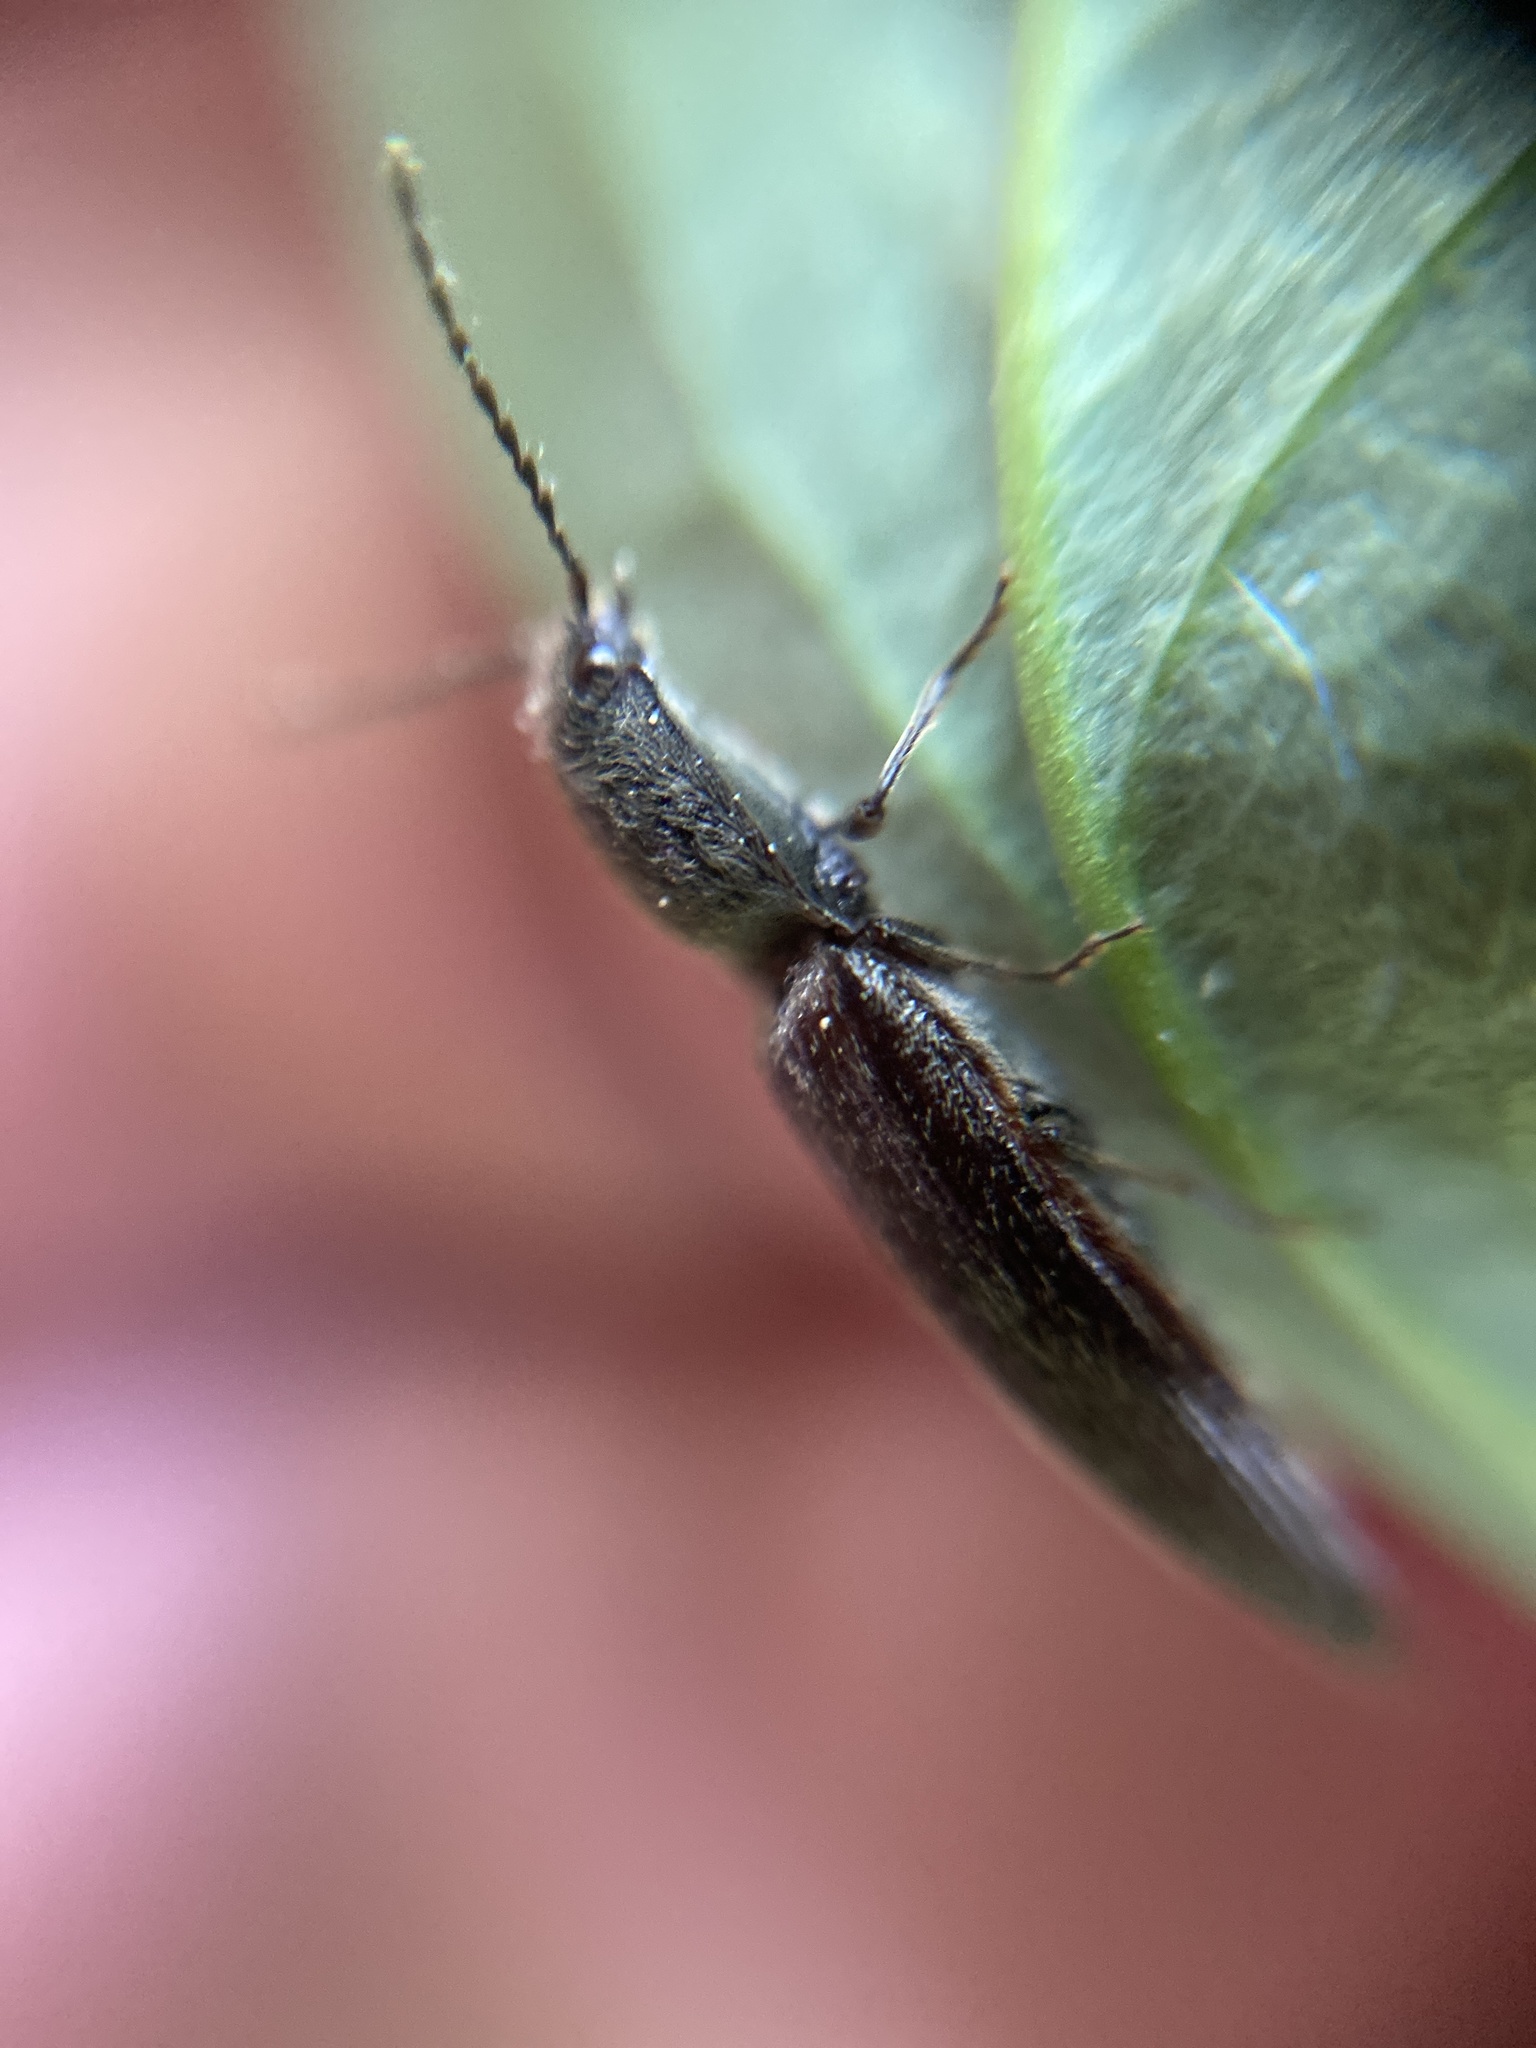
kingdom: Animalia
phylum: Arthropoda
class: Insecta
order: Coleoptera
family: Elateridae
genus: Athous
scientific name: Athous haemorrhoidalis
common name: Red-brown click beetle
